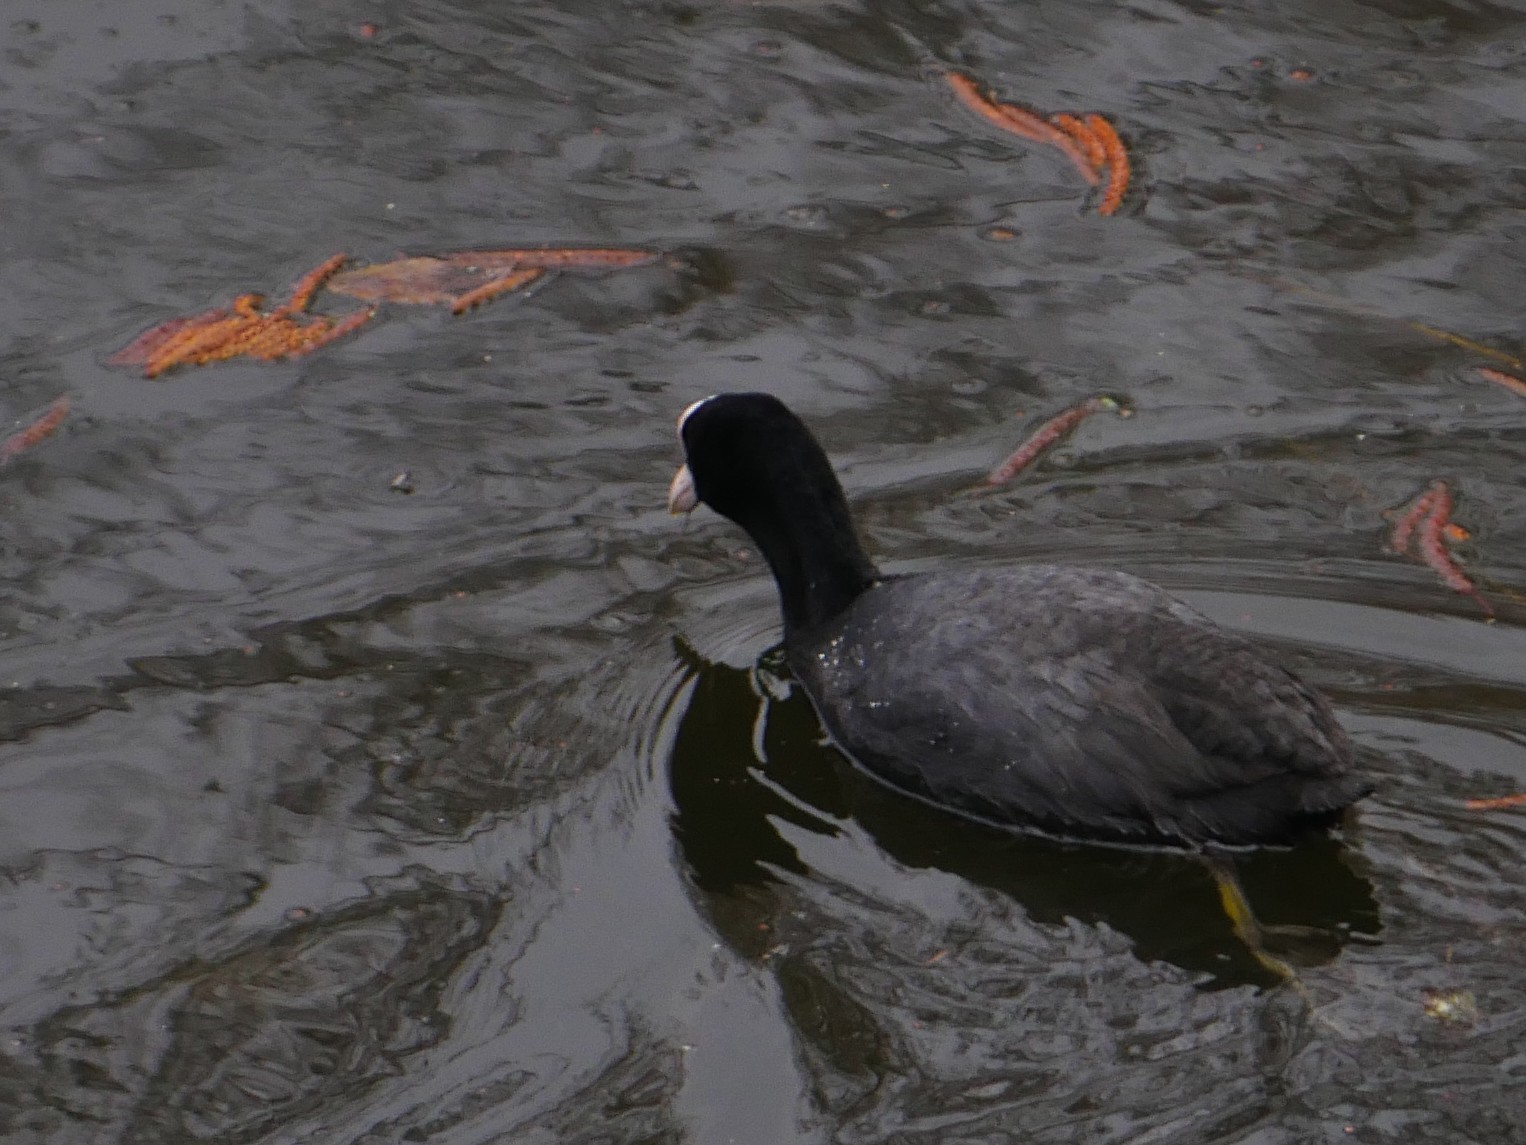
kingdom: Animalia
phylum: Chordata
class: Aves
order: Gruiformes
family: Rallidae
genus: Fulica
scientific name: Fulica atra
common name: Eurasian coot
